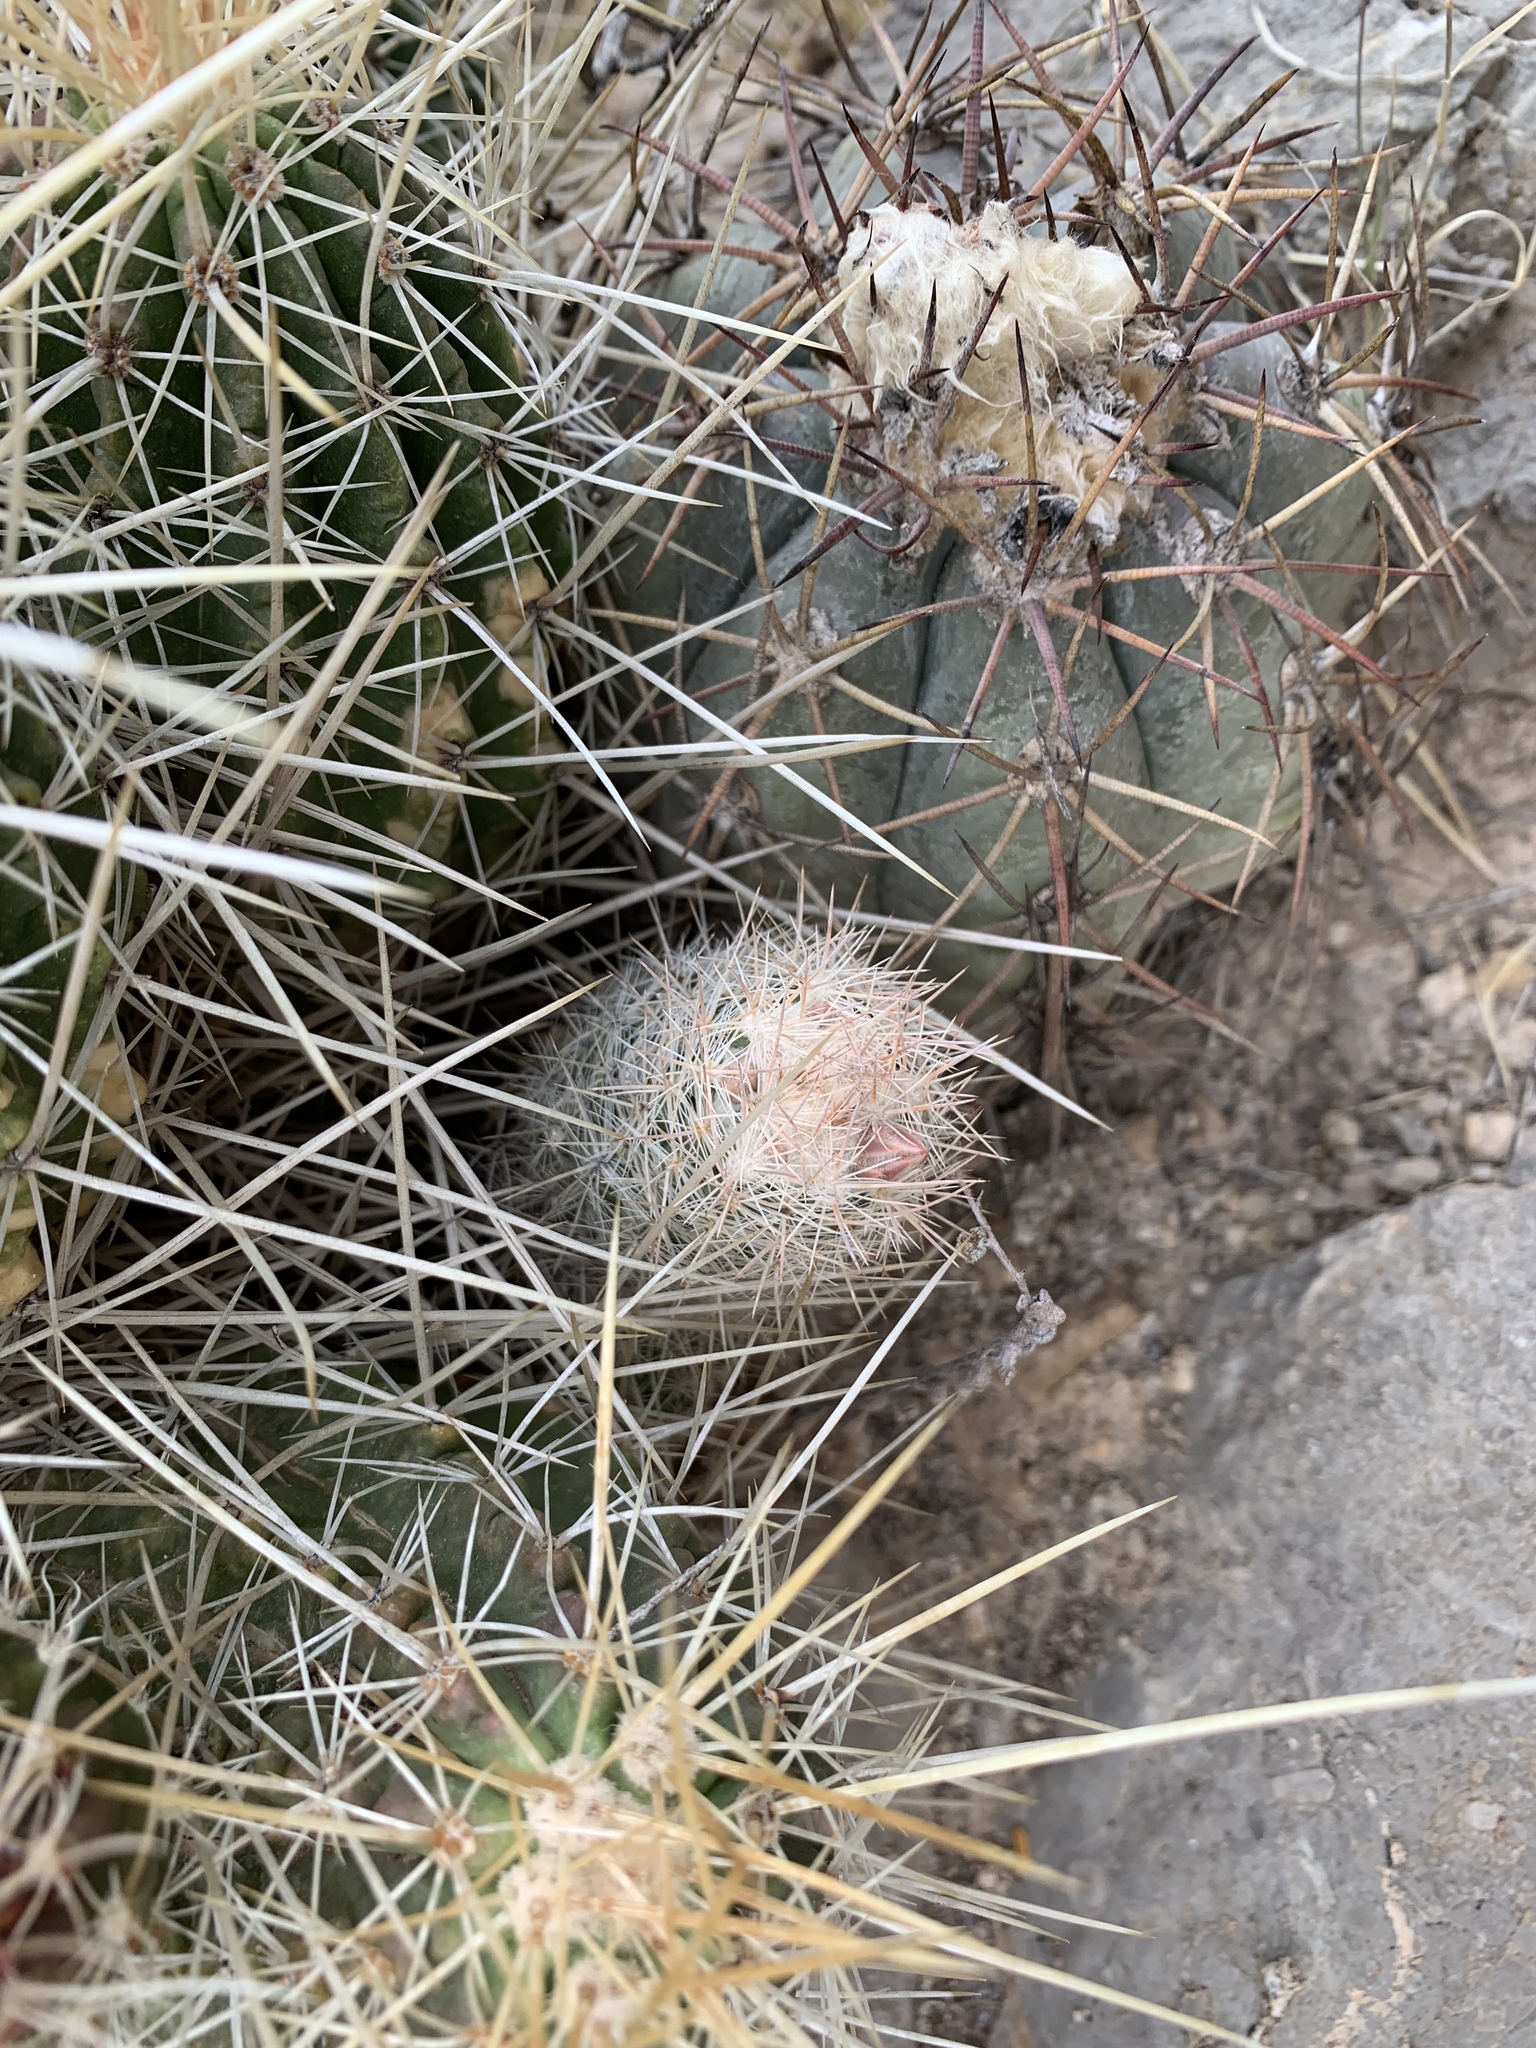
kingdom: Plantae
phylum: Tracheophyta
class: Magnoliopsida
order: Caryophyllales
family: Cactaceae
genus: Pelecyphora
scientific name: Pelecyphora tuberculosa
